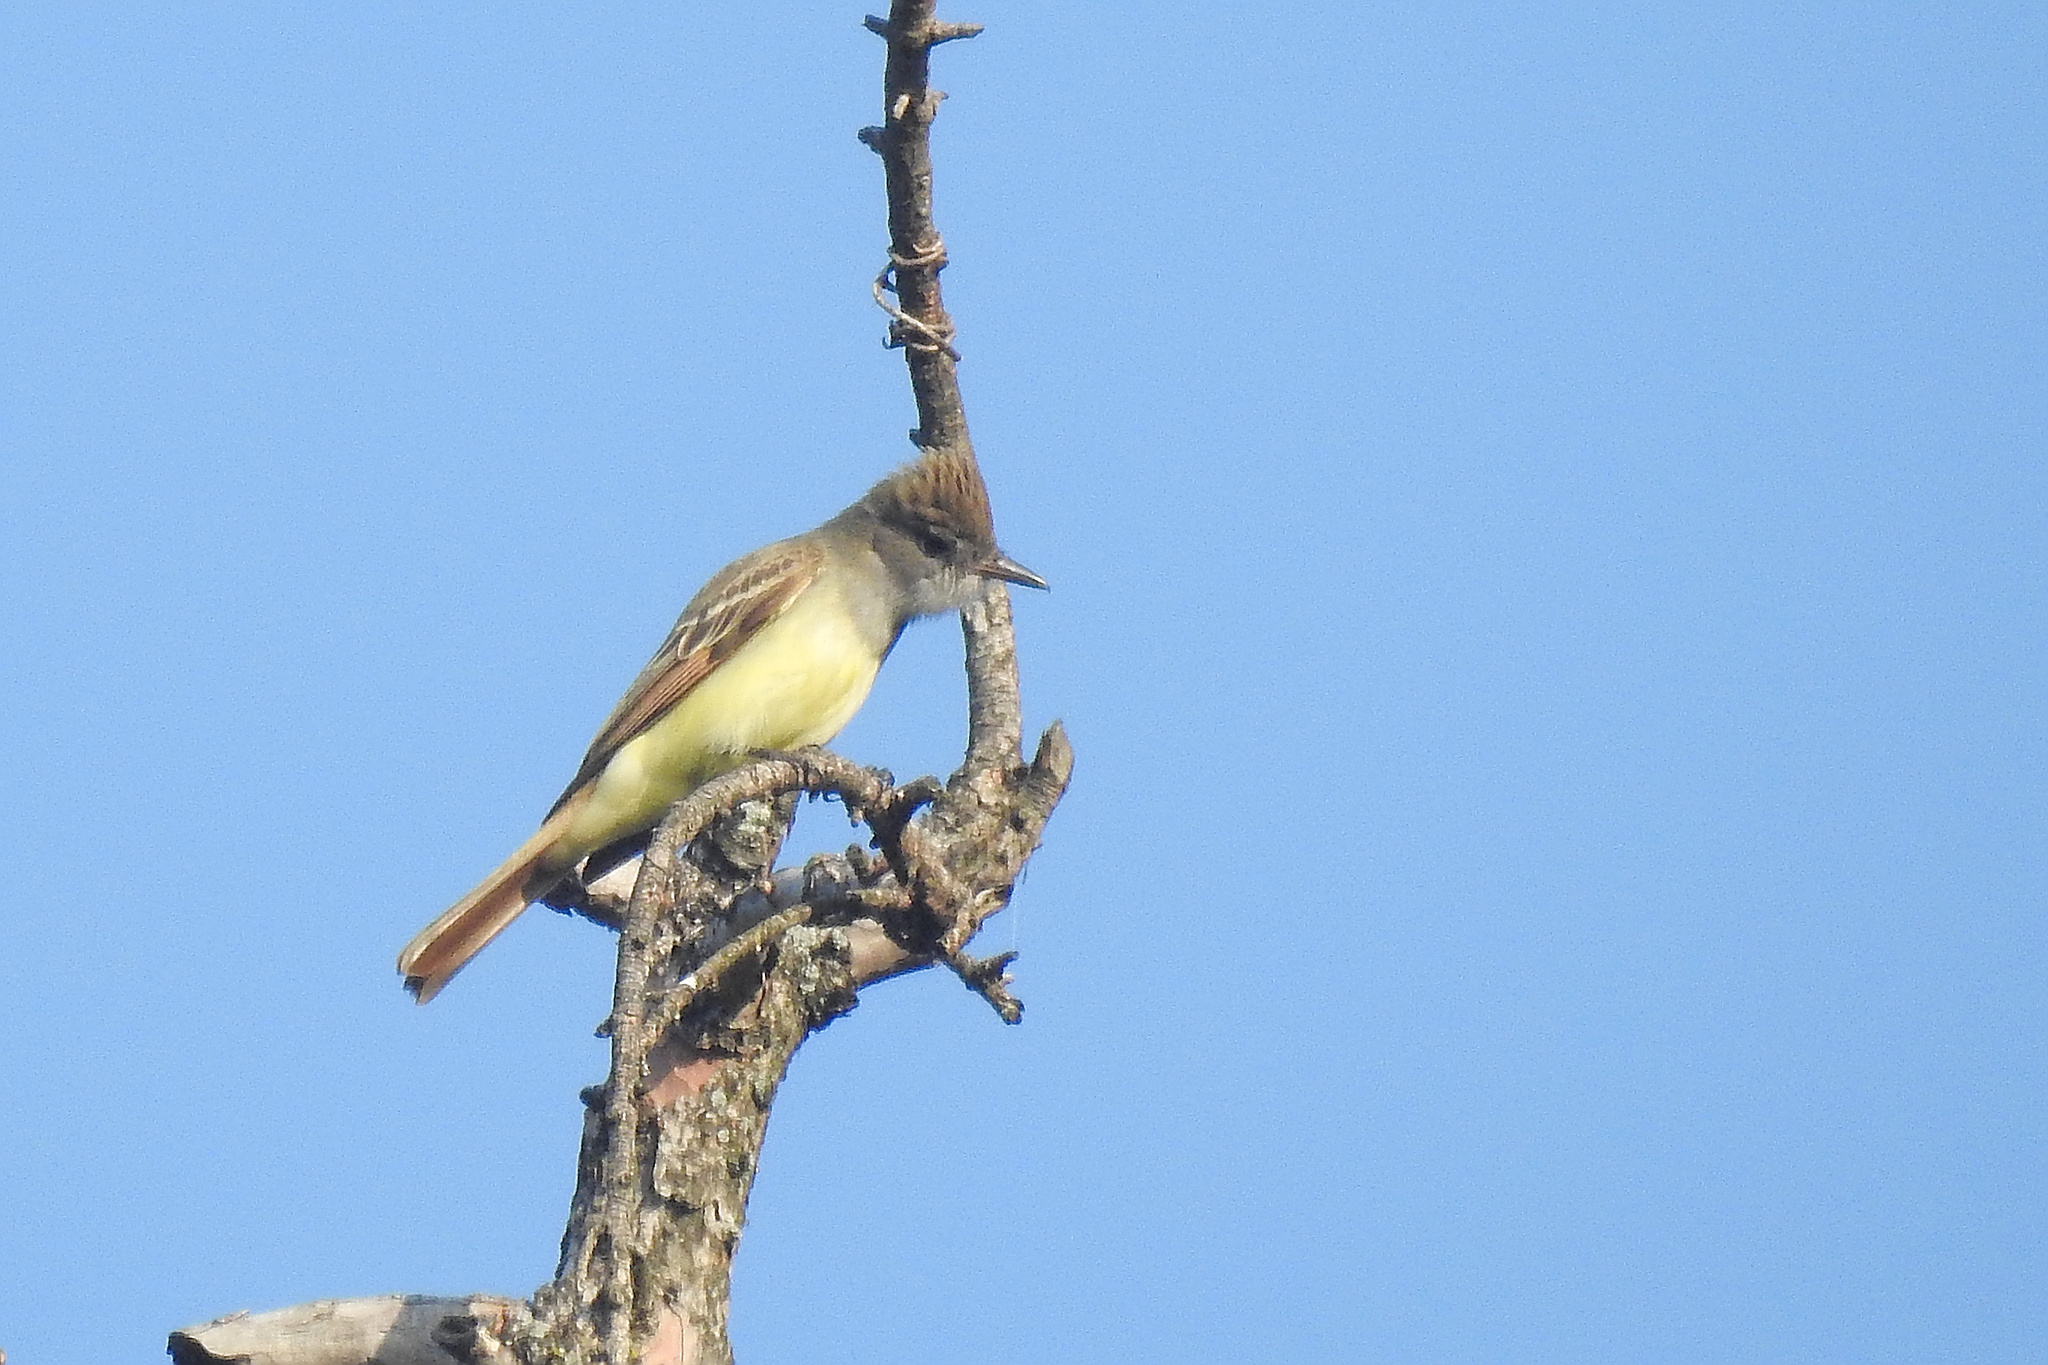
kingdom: Animalia
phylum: Chordata
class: Aves
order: Passeriformes
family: Tyrannidae
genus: Myiarchus
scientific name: Myiarchus crinitus
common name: Great crested flycatcher
